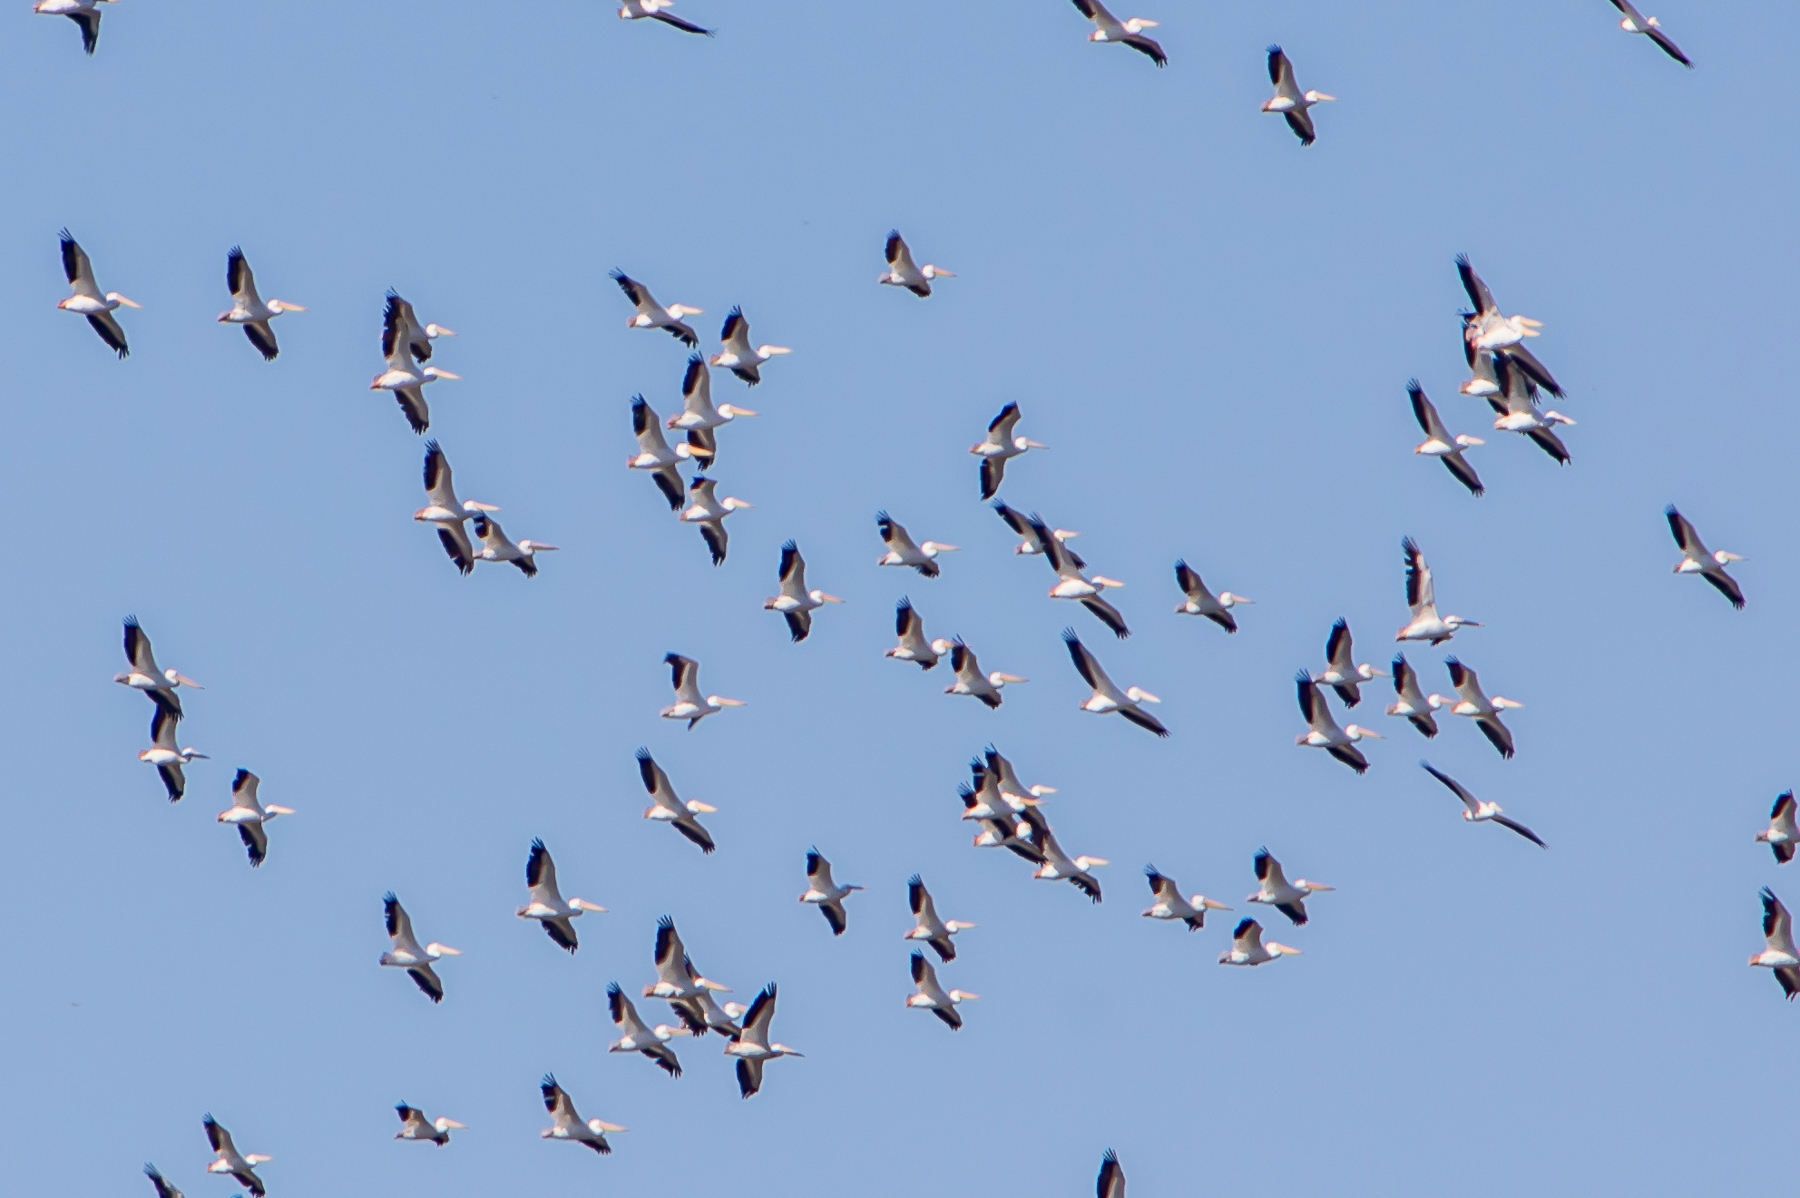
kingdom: Animalia
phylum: Chordata
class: Aves
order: Pelecaniformes
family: Pelecanidae
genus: Pelecanus
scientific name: Pelecanus erythrorhynchos
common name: American white pelican
